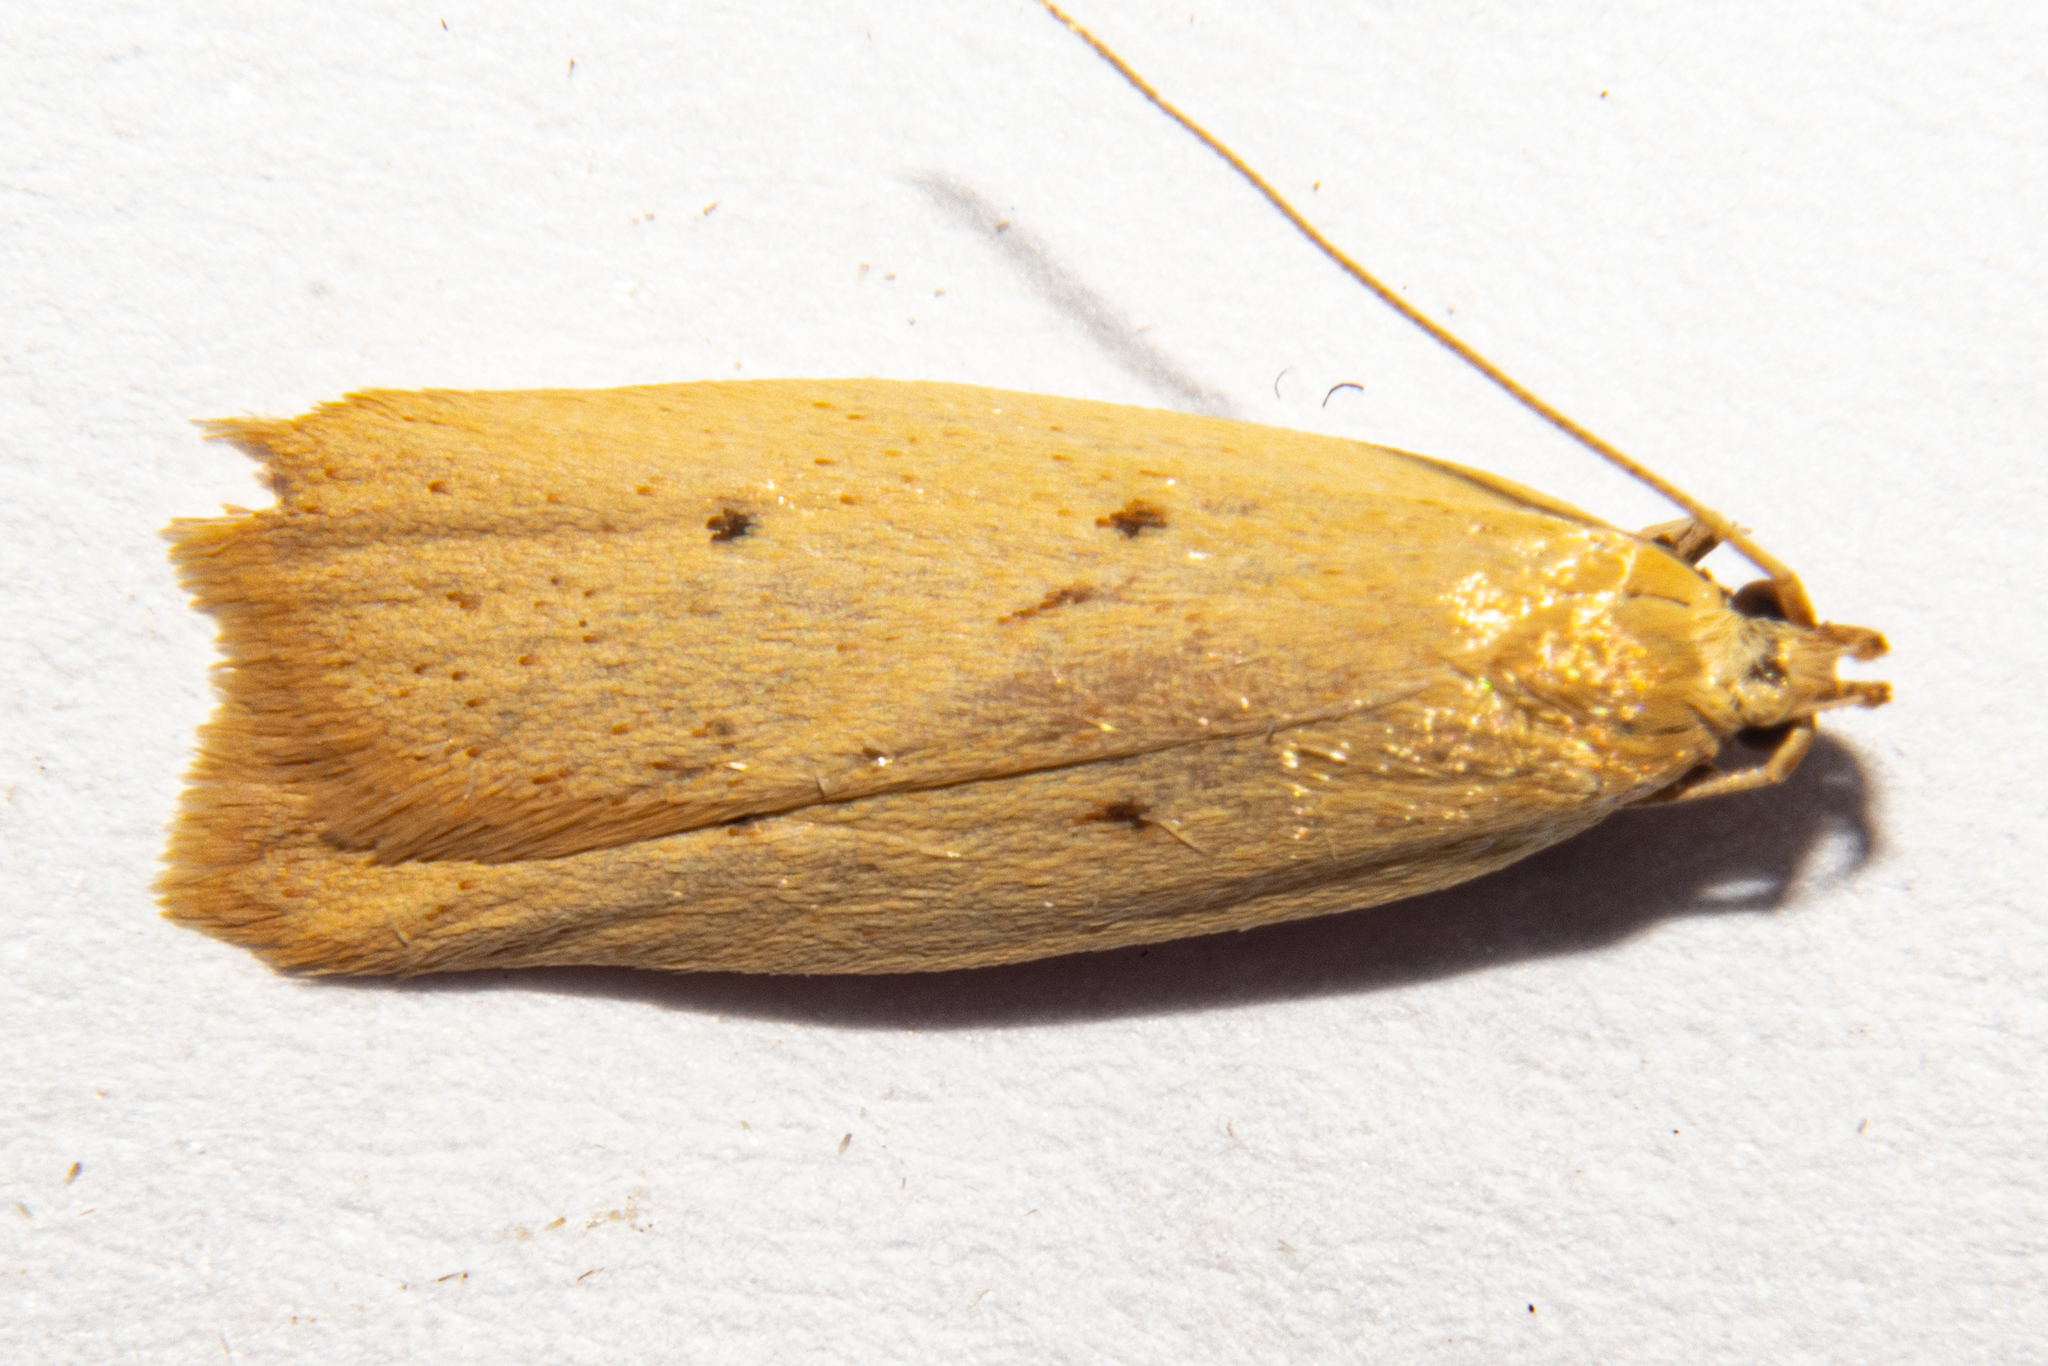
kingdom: Animalia
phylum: Arthropoda
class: Insecta
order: Lepidoptera
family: Oecophoridae
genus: Gymnobathra
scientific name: Gymnobathra sarcoxantha
